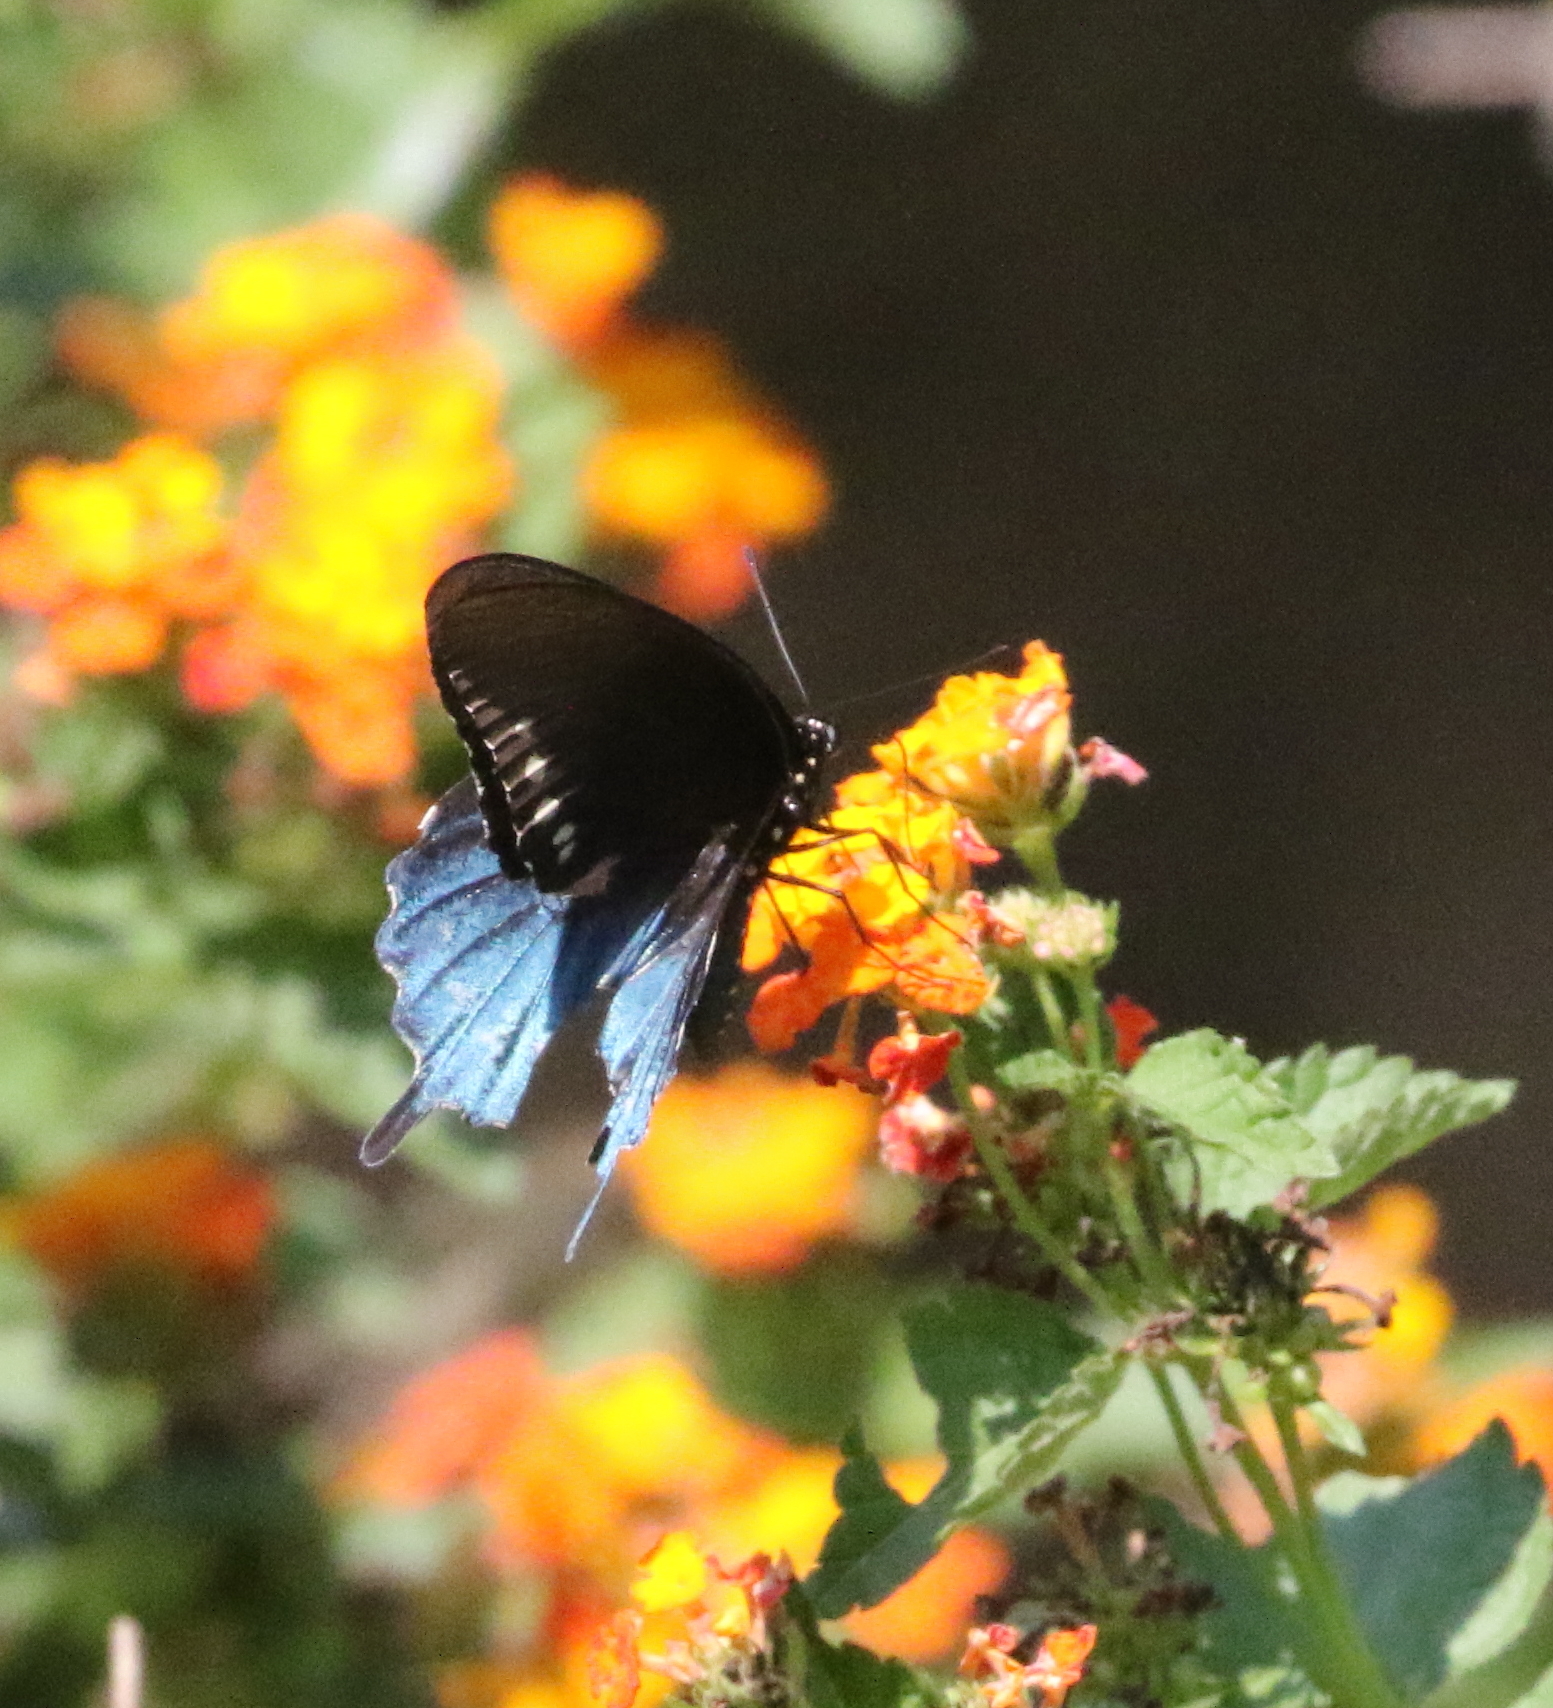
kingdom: Animalia
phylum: Arthropoda
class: Insecta
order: Lepidoptera
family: Papilionidae
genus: Battus
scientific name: Battus philenor
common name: Pipevine swallowtail
